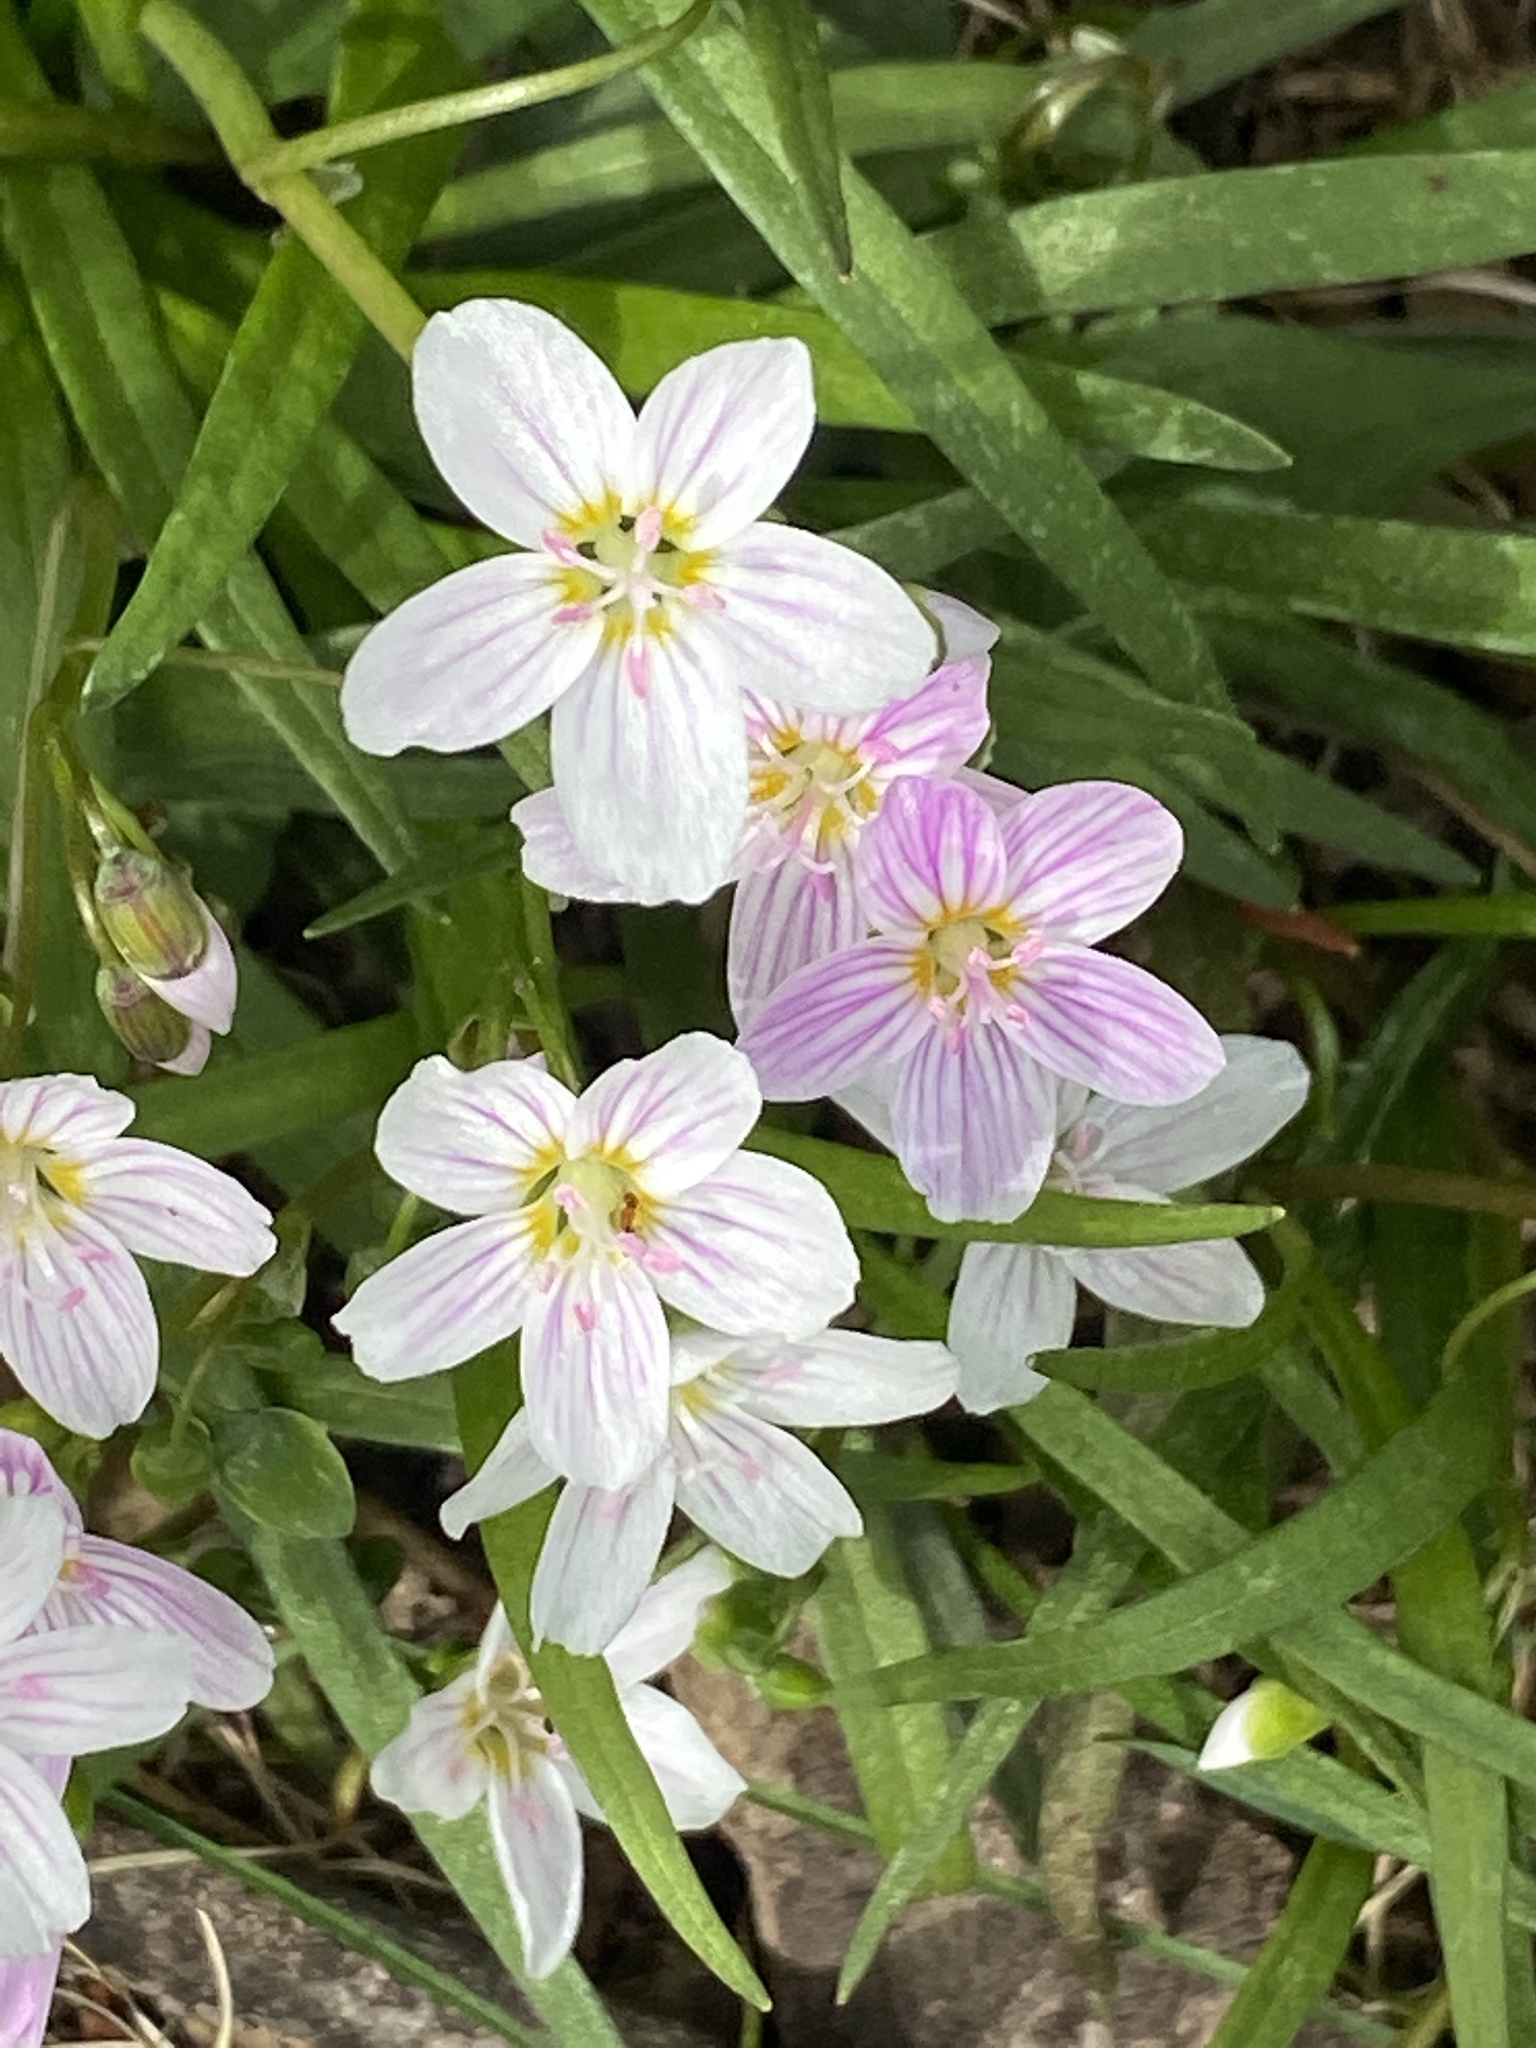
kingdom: Plantae
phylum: Tracheophyta
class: Magnoliopsida
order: Caryophyllales
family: Montiaceae
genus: Claytonia
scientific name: Claytonia virginica
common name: Virginia springbeauty
